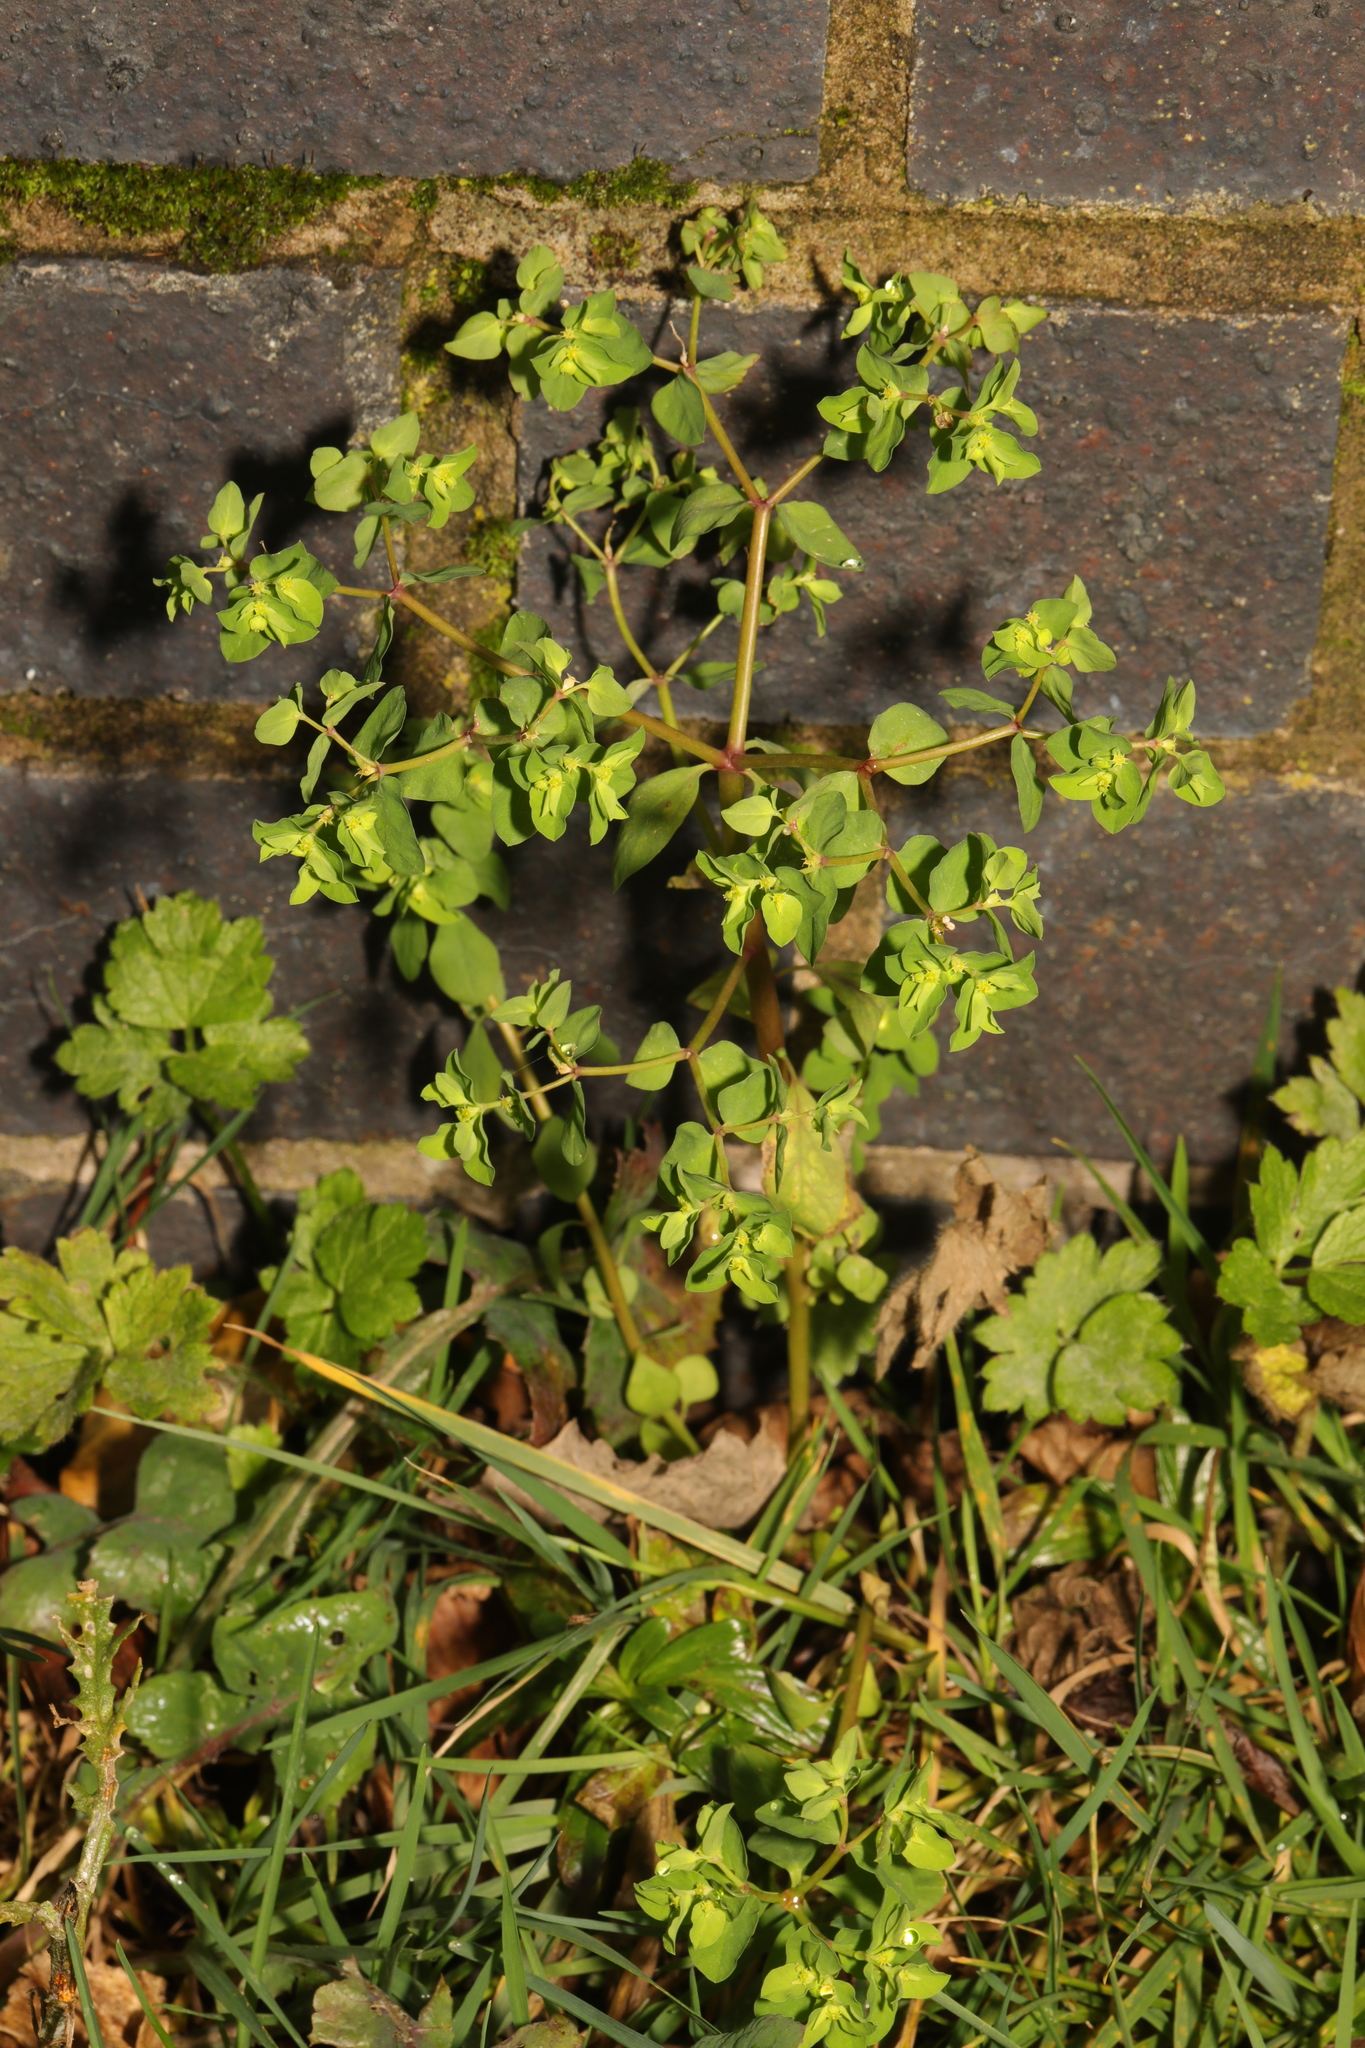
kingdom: Plantae
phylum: Tracheophyta
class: Magnoliopsida
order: Malpighiales
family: Euphorbiaceae
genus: Euphorbia
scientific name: Euphorbia peplus
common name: Petty spurge
